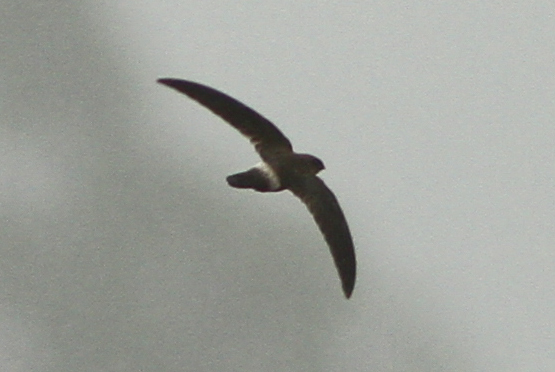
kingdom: Animalia
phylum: Chordata
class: Aves
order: Apodiformes
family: Apodidae
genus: Aerodramus
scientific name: Aerodramus terraereginae
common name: Australian swiftlet
